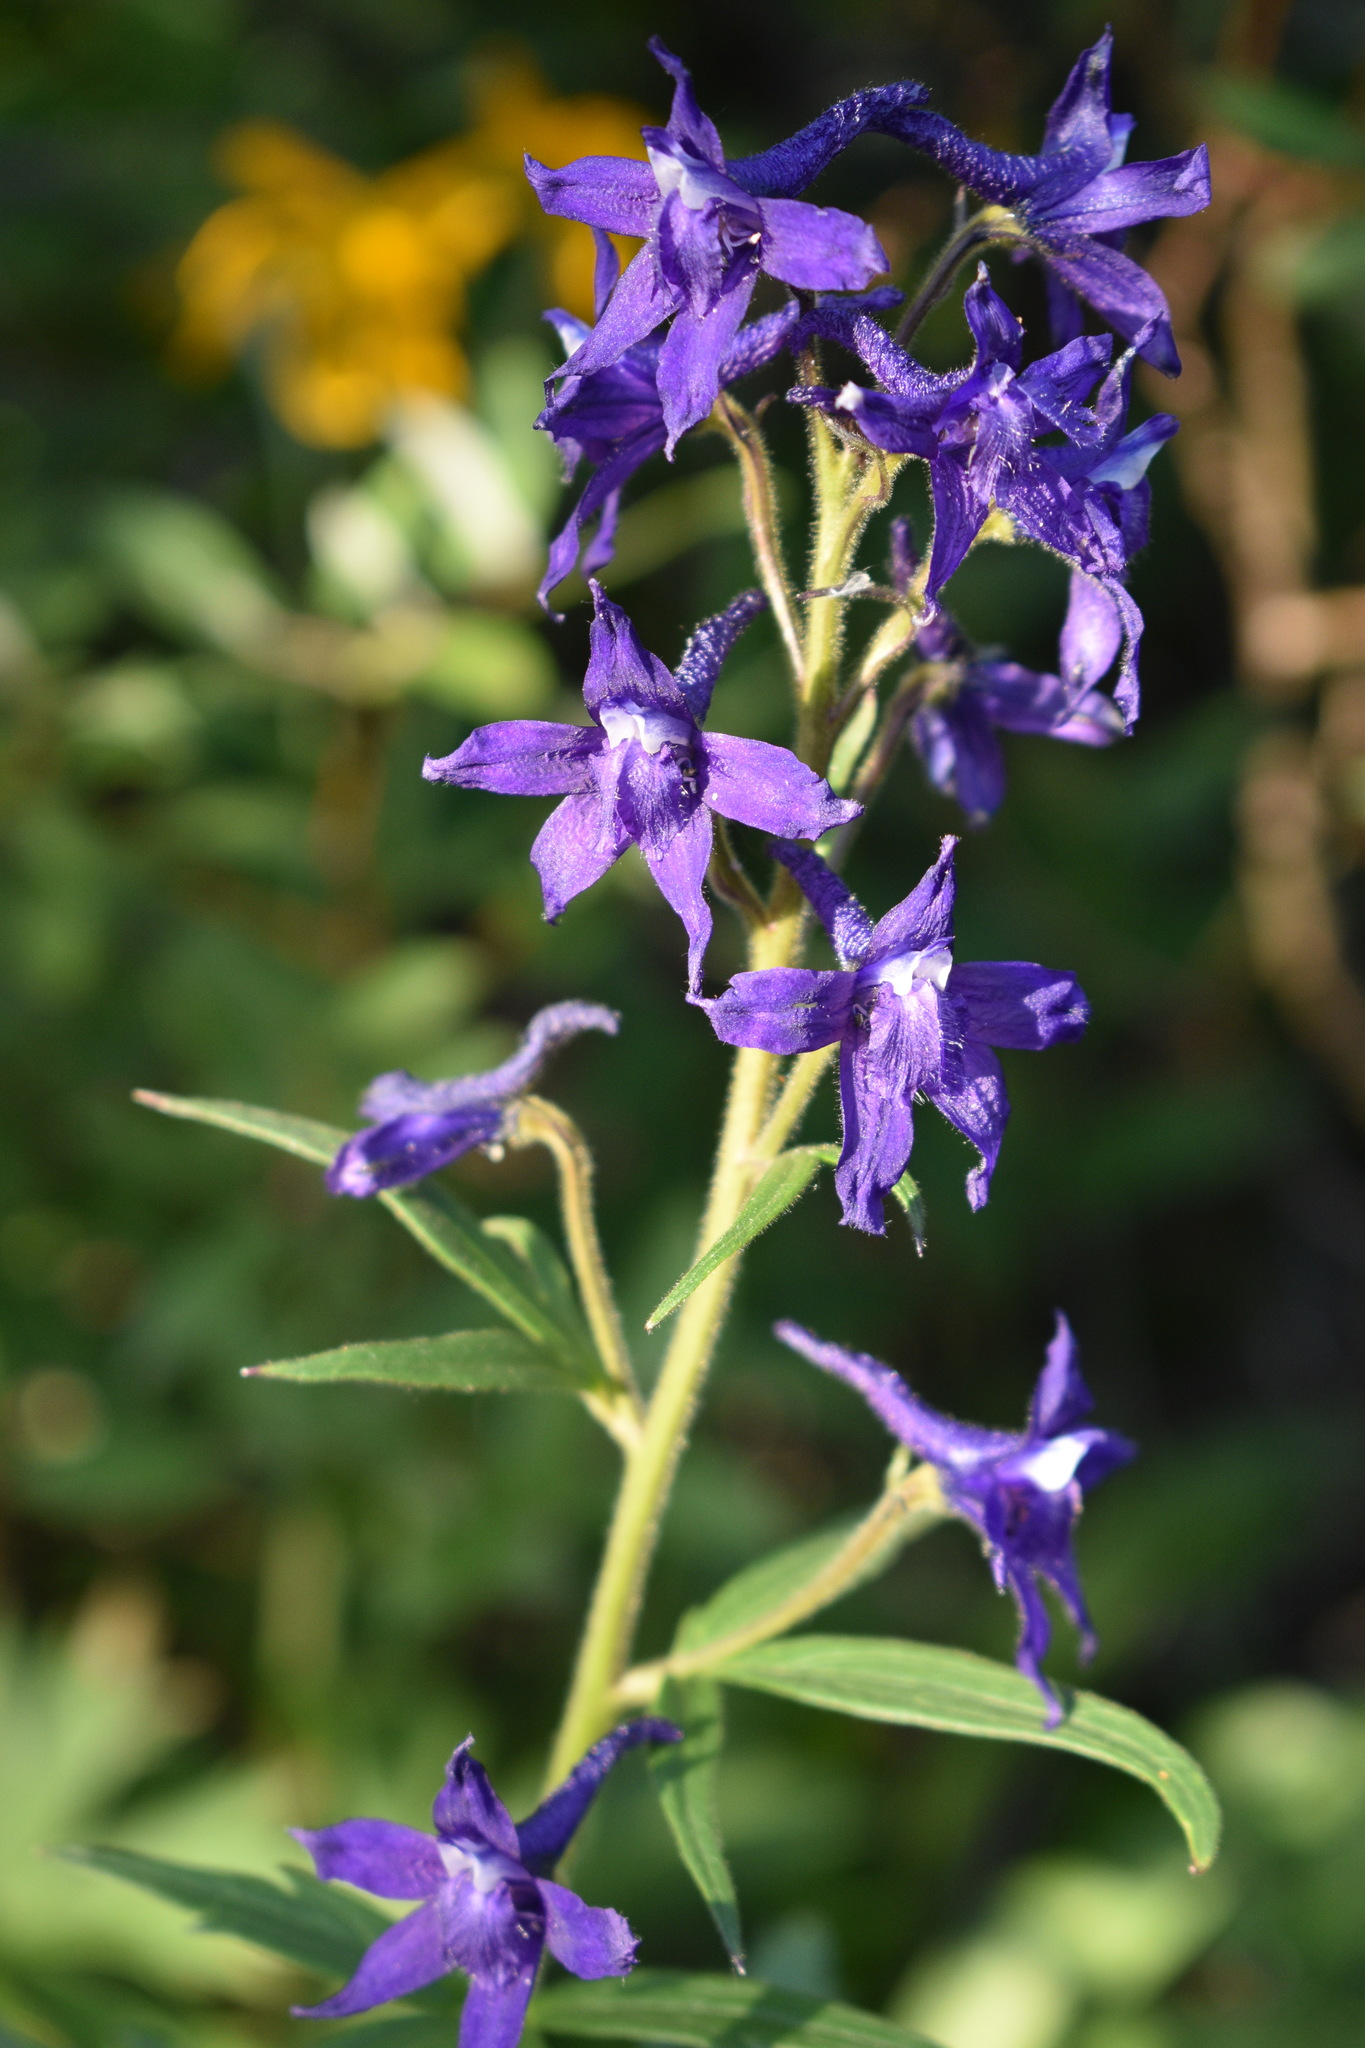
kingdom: Plantae
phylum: Tracheophyta
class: Magnoliopsida
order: Ranunculales
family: Ranunculaceae
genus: Delphinium
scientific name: Delphinium barbeyi
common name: Subalpine larkspur
